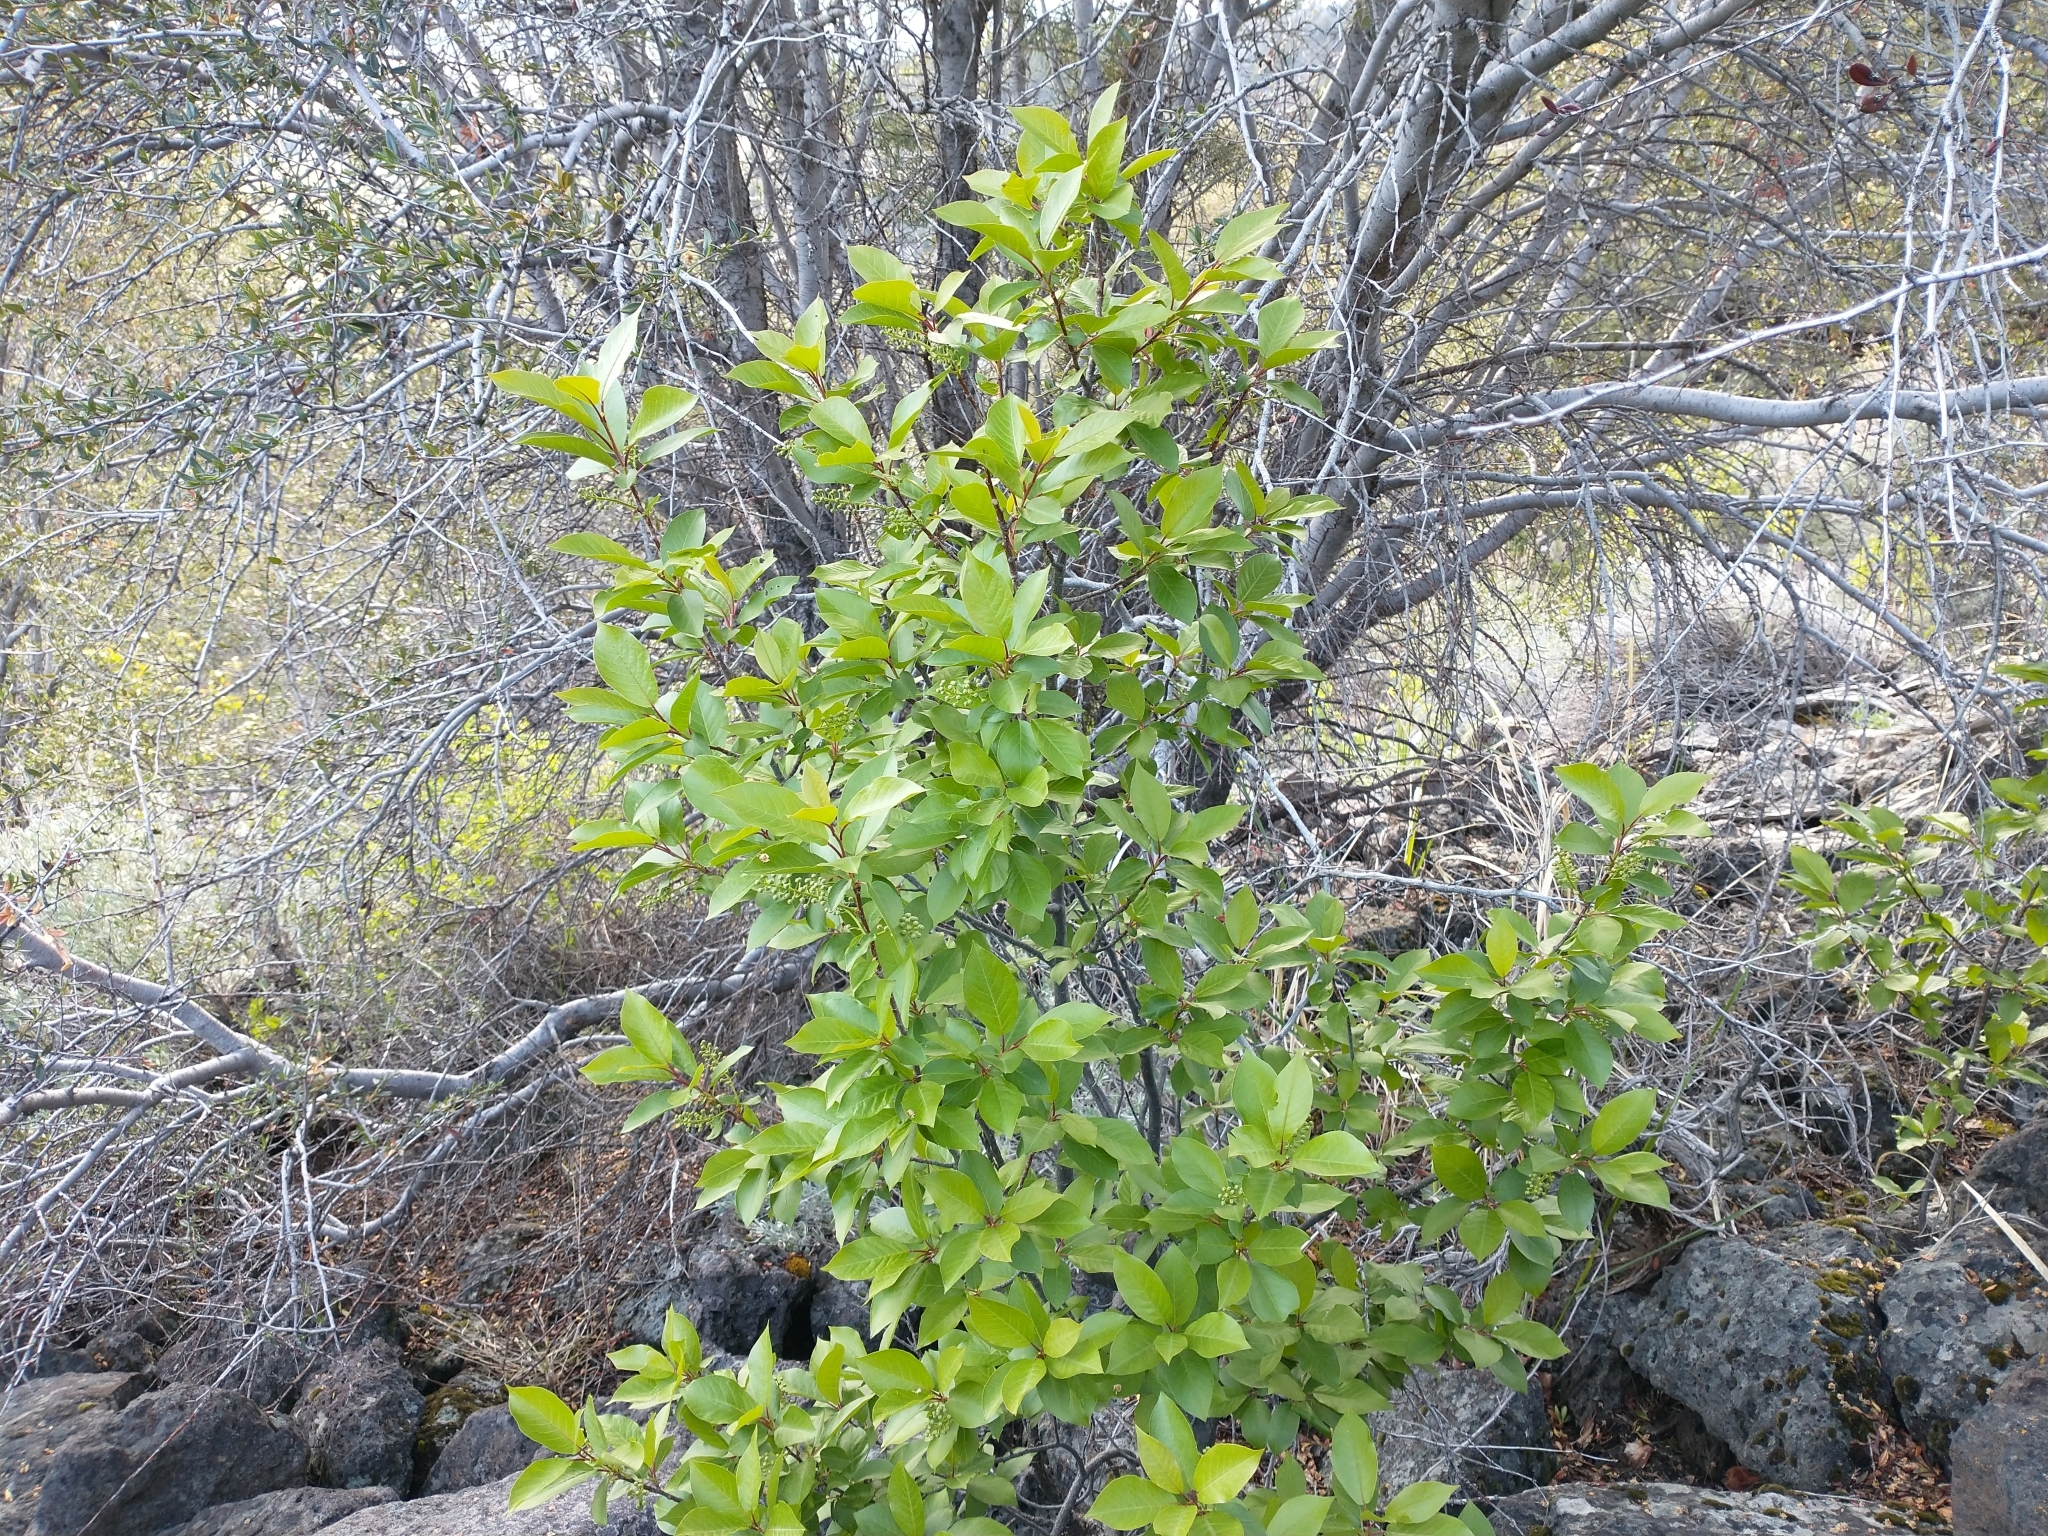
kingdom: Plantae
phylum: Tracheophyta
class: Magnoliopsida
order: Rosales
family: Rosaceae
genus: Prunus
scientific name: Prunus virginiana
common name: Chokecherry
